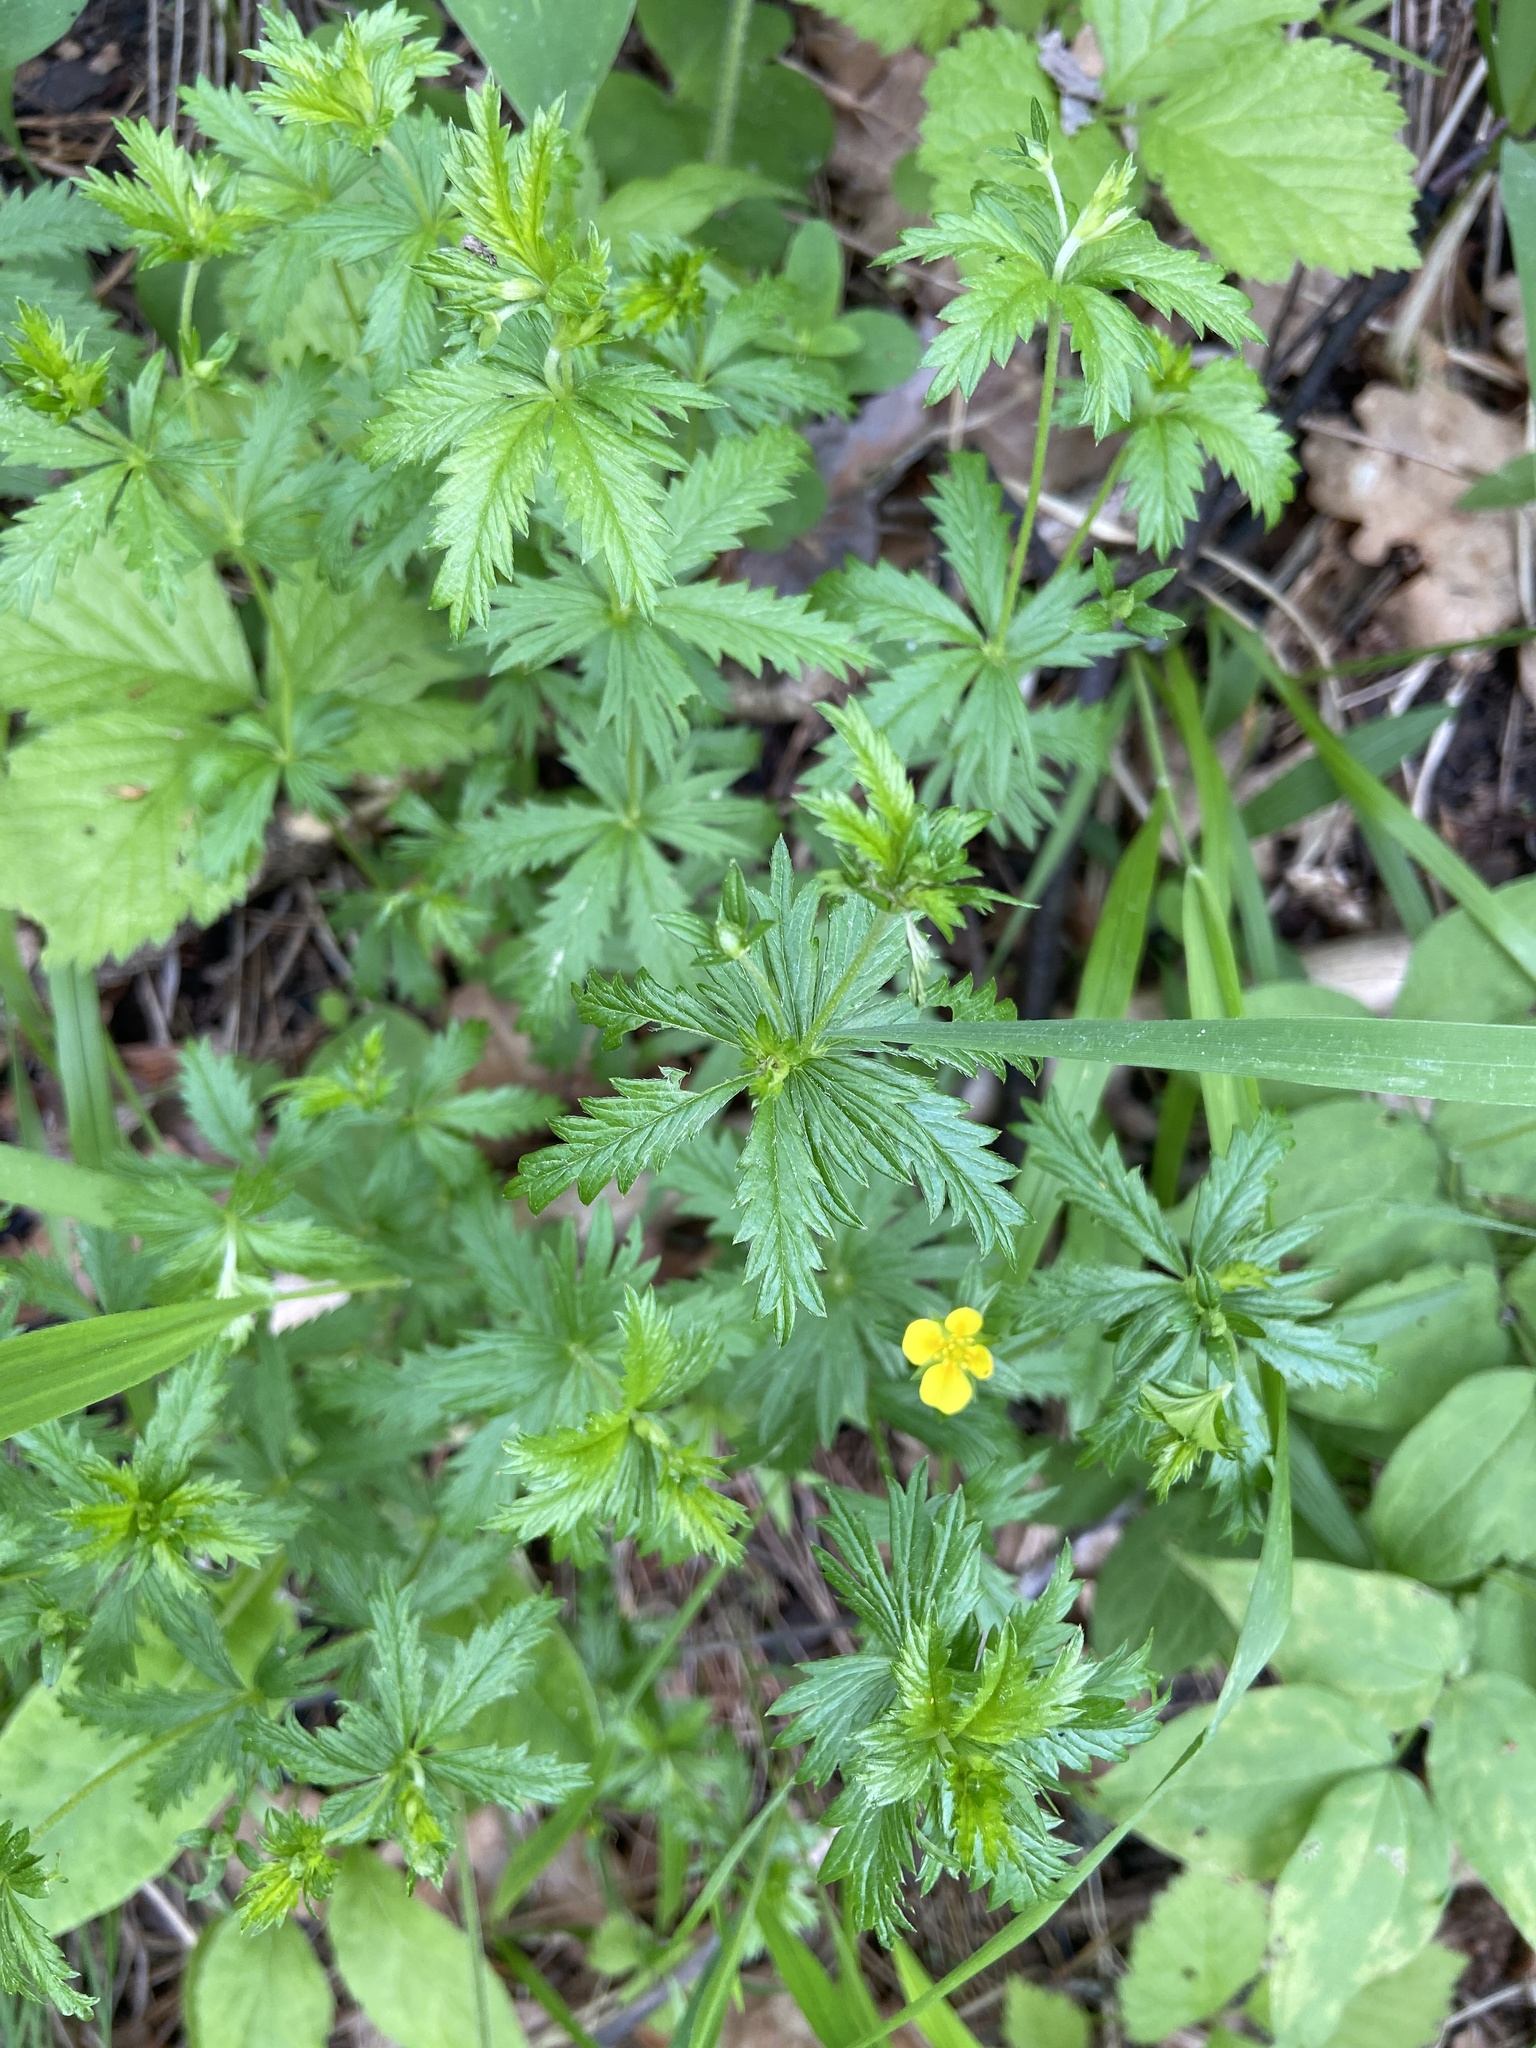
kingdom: Plantae
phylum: Tracheophyta
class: Magnoliopsida
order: Rosales
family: Rosaceae
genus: Potentilla
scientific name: Potentilla erecta
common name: Tormentil
